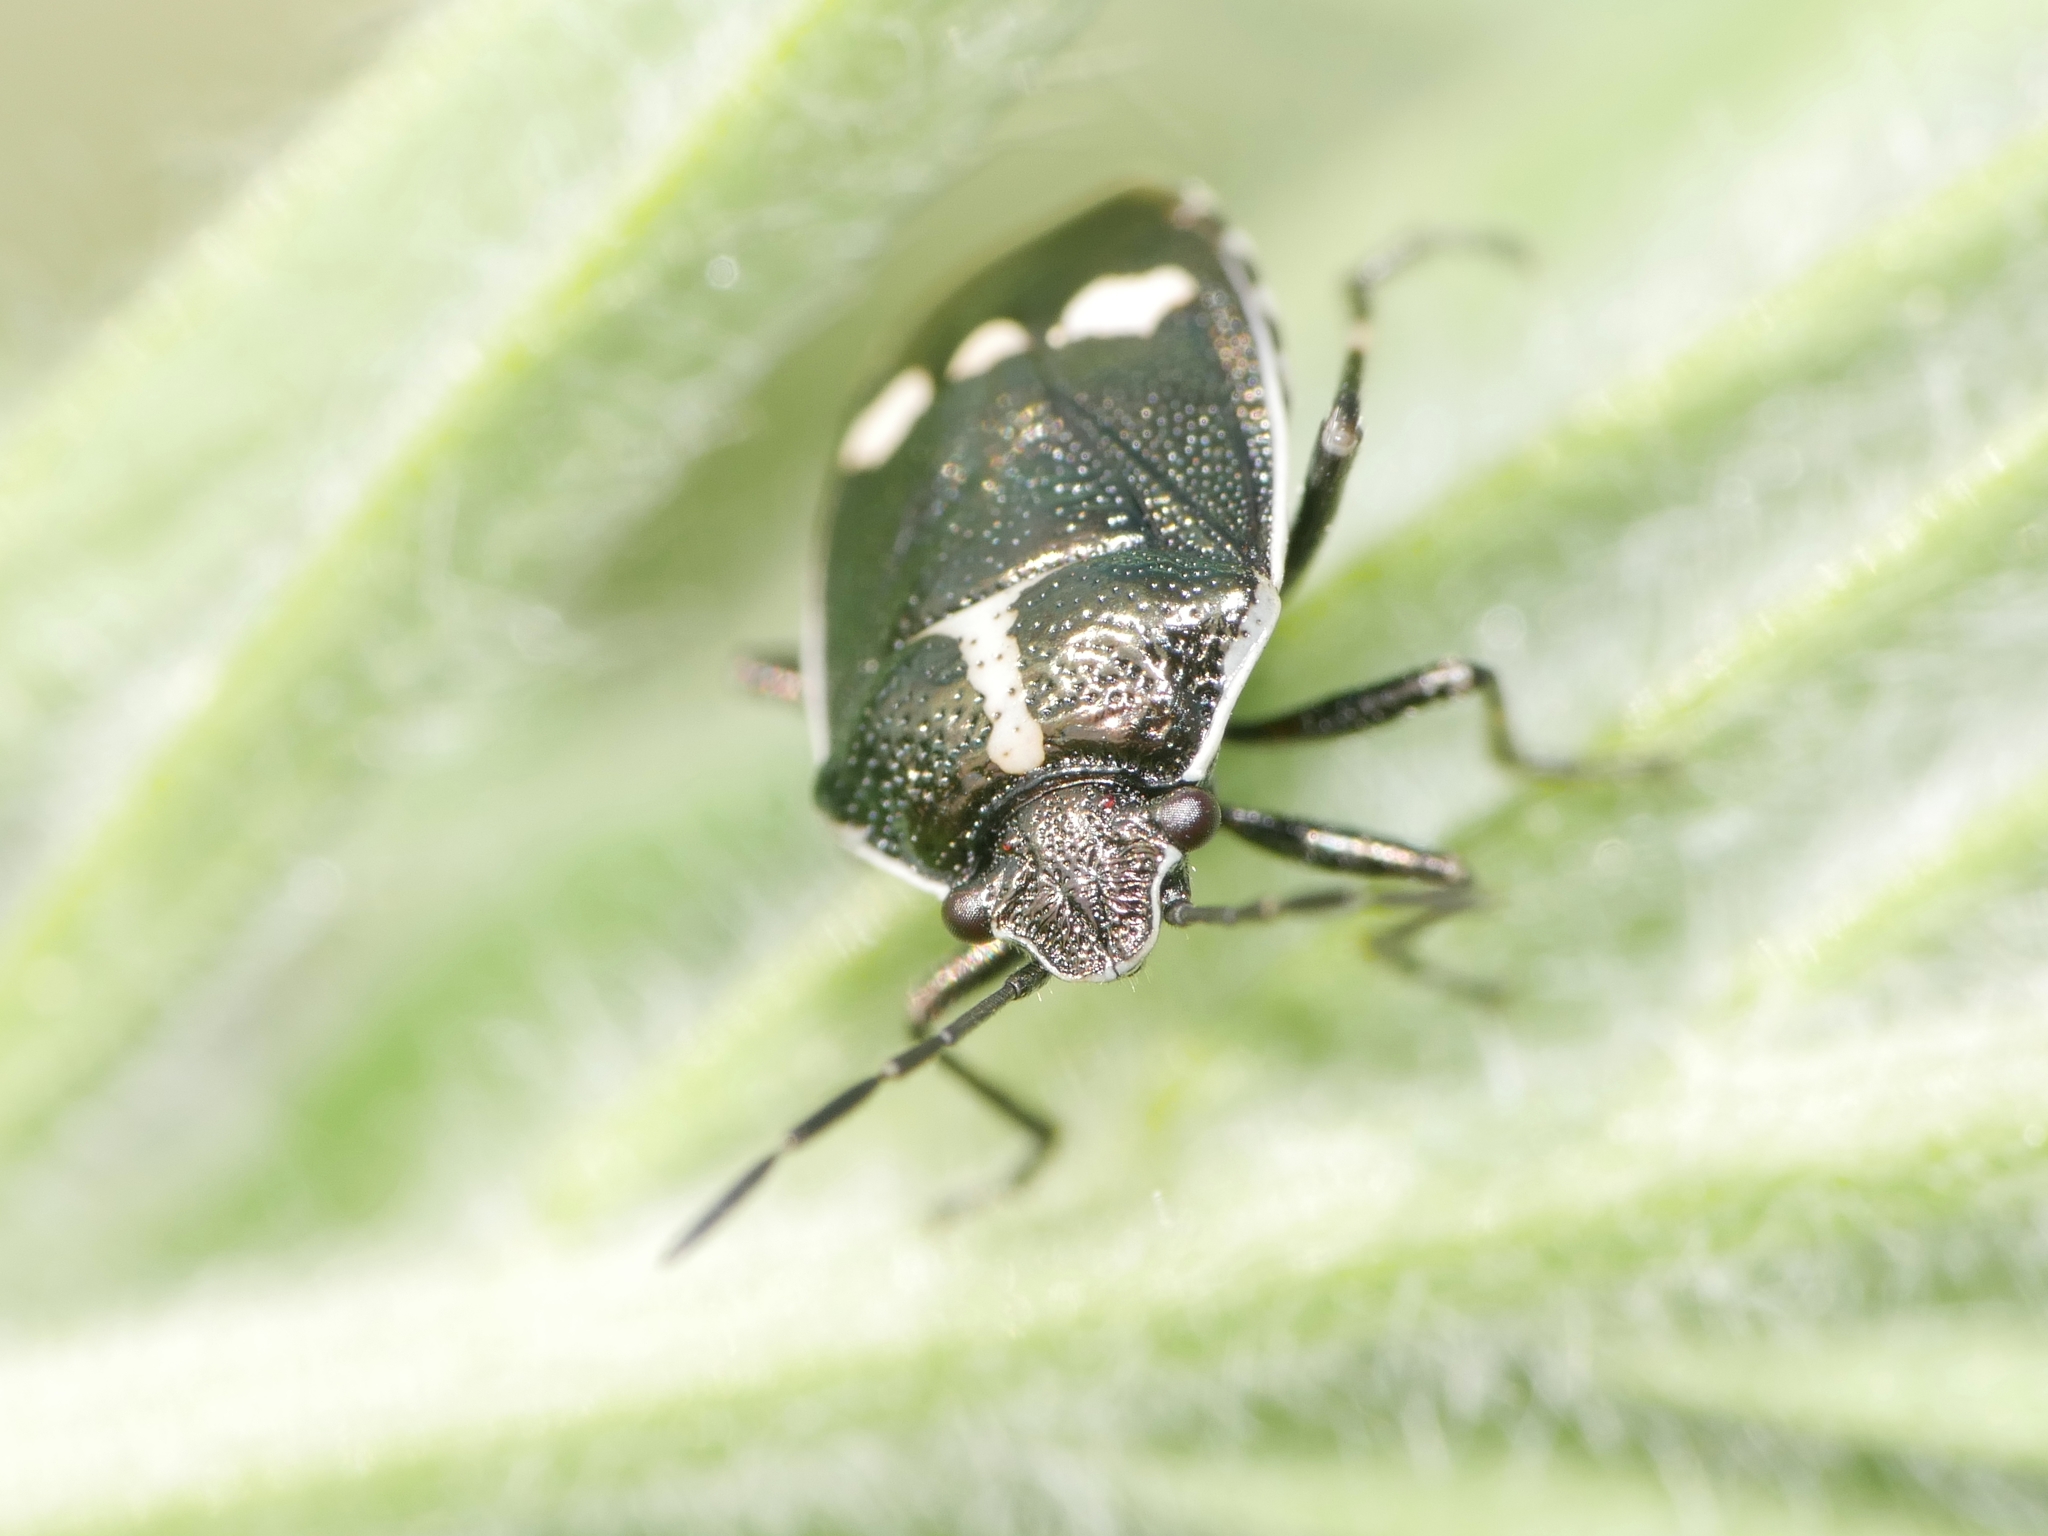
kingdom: Animalia
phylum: Arthropoda
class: Insecta
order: Hemiptera
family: Pentatomidae
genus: Eurydema
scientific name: Eurydema oleracea
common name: Cabbage bug
